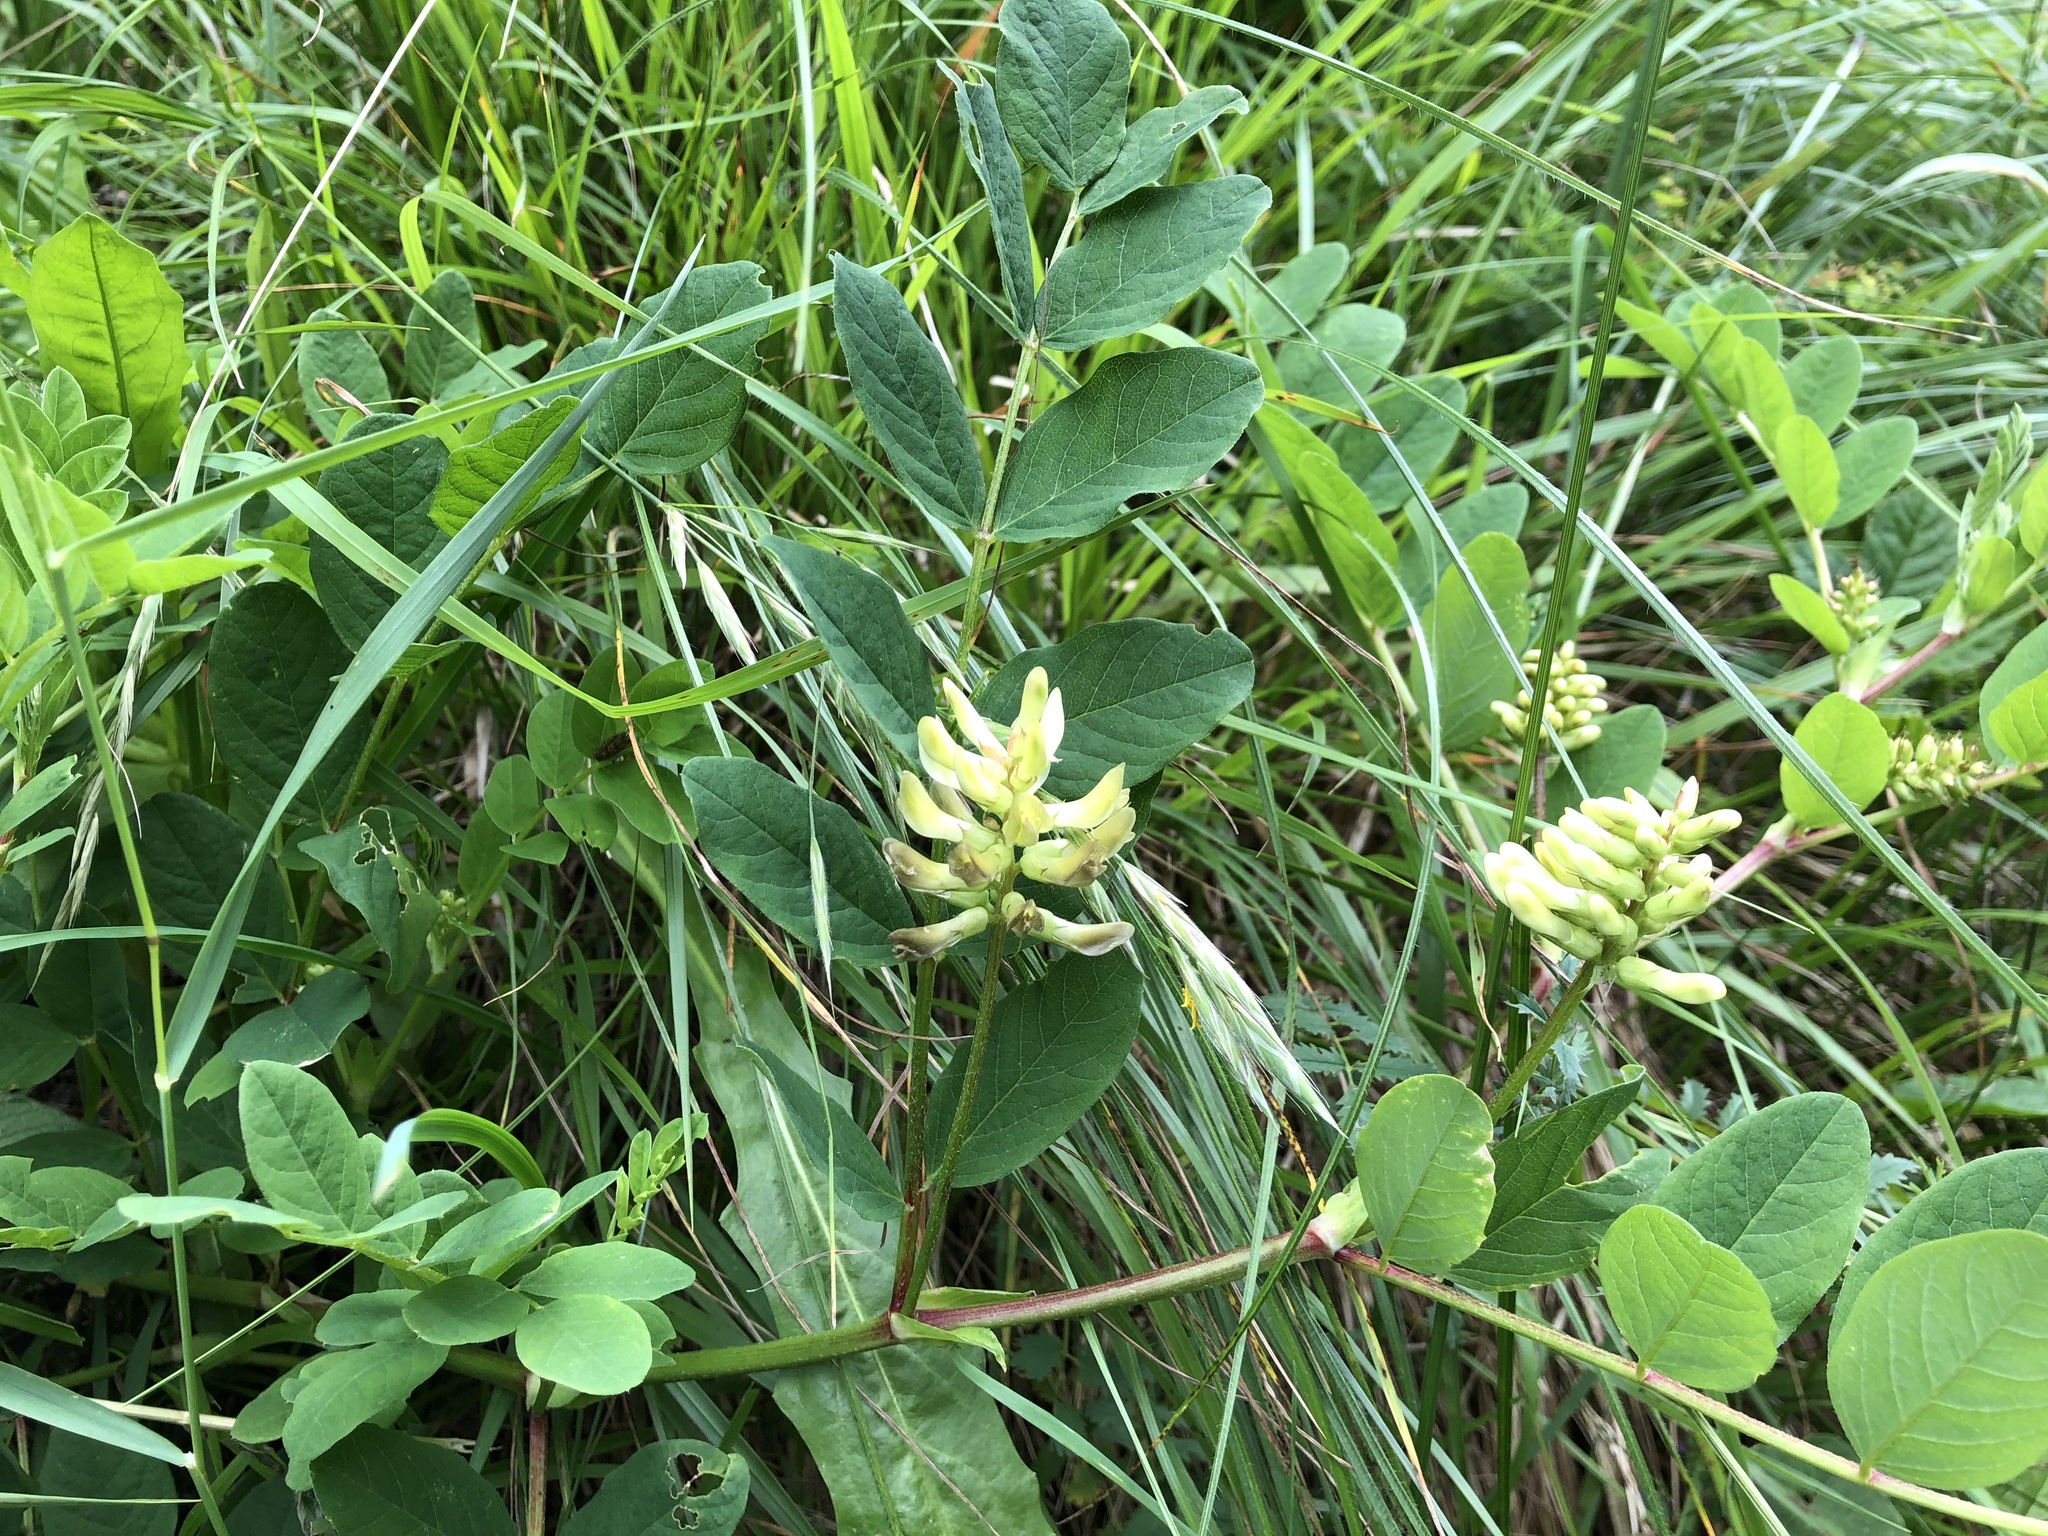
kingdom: Plantae
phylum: Tracheophyta
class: Magnoliopsida
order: Fabales
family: Fabaceae
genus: Astragalus
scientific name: Astragalus glycyphyllos
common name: Wild liquorice
